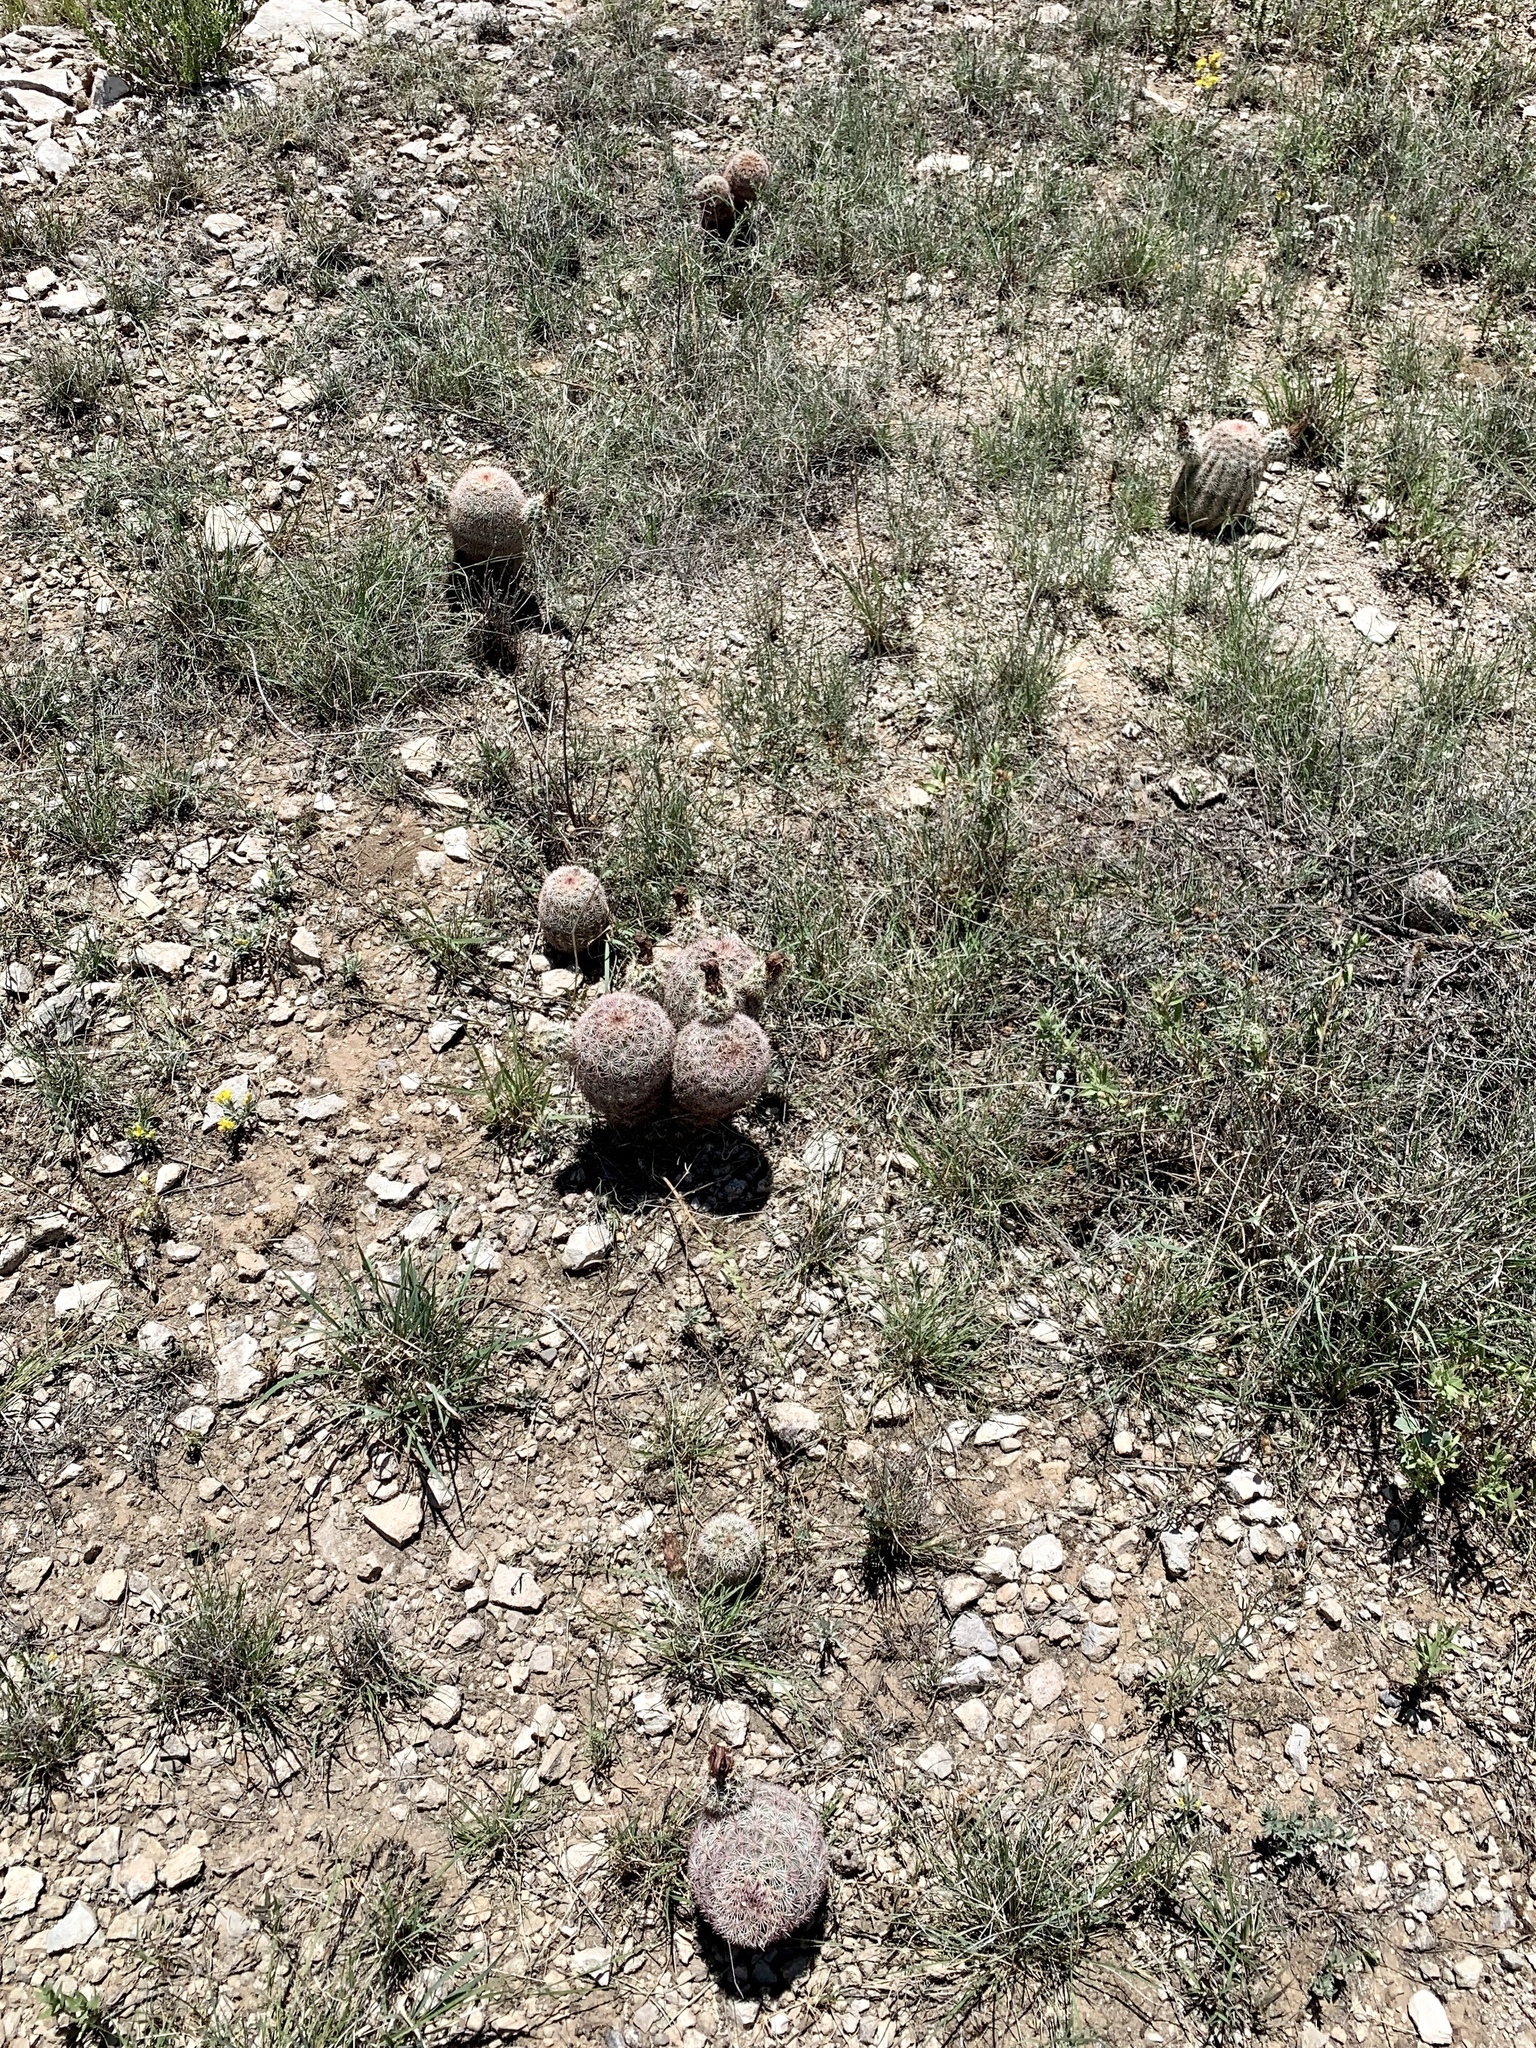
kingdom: Plantae
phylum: Tracheophyta
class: Magnoliopsida
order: Caryophyllales
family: Cactaceae
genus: Echinocereus
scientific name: Echinocereus dasyacanthus
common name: Spiny hedgehog cactus
